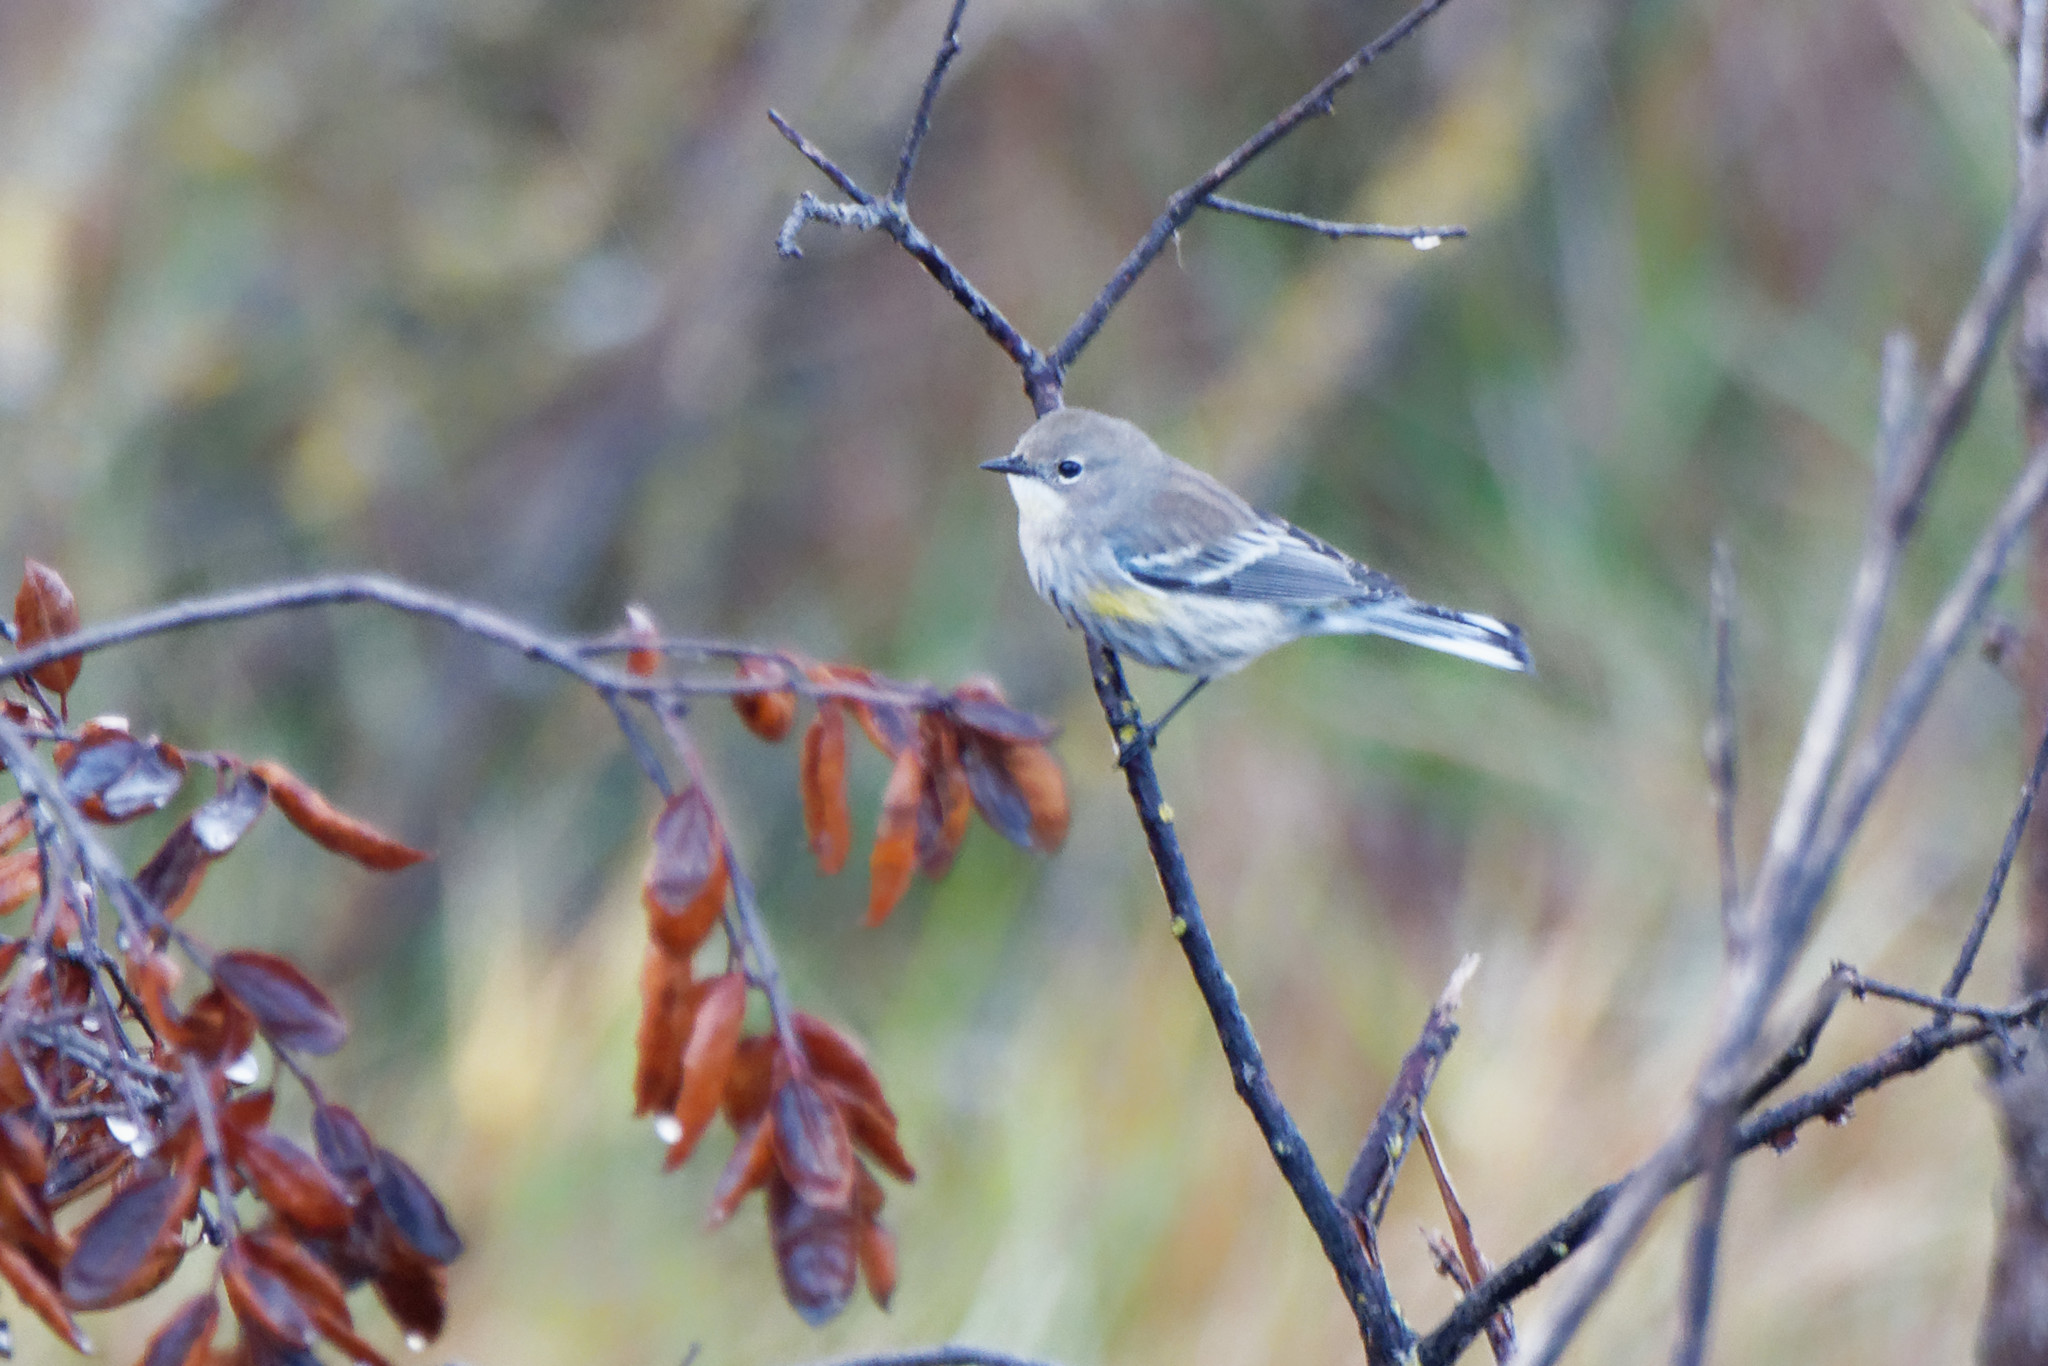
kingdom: Animalia
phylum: Chordata
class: Aves
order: Passeriformes
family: Parulidae
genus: Setophaga
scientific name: Setophaga coronata
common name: Myrtle warbler
